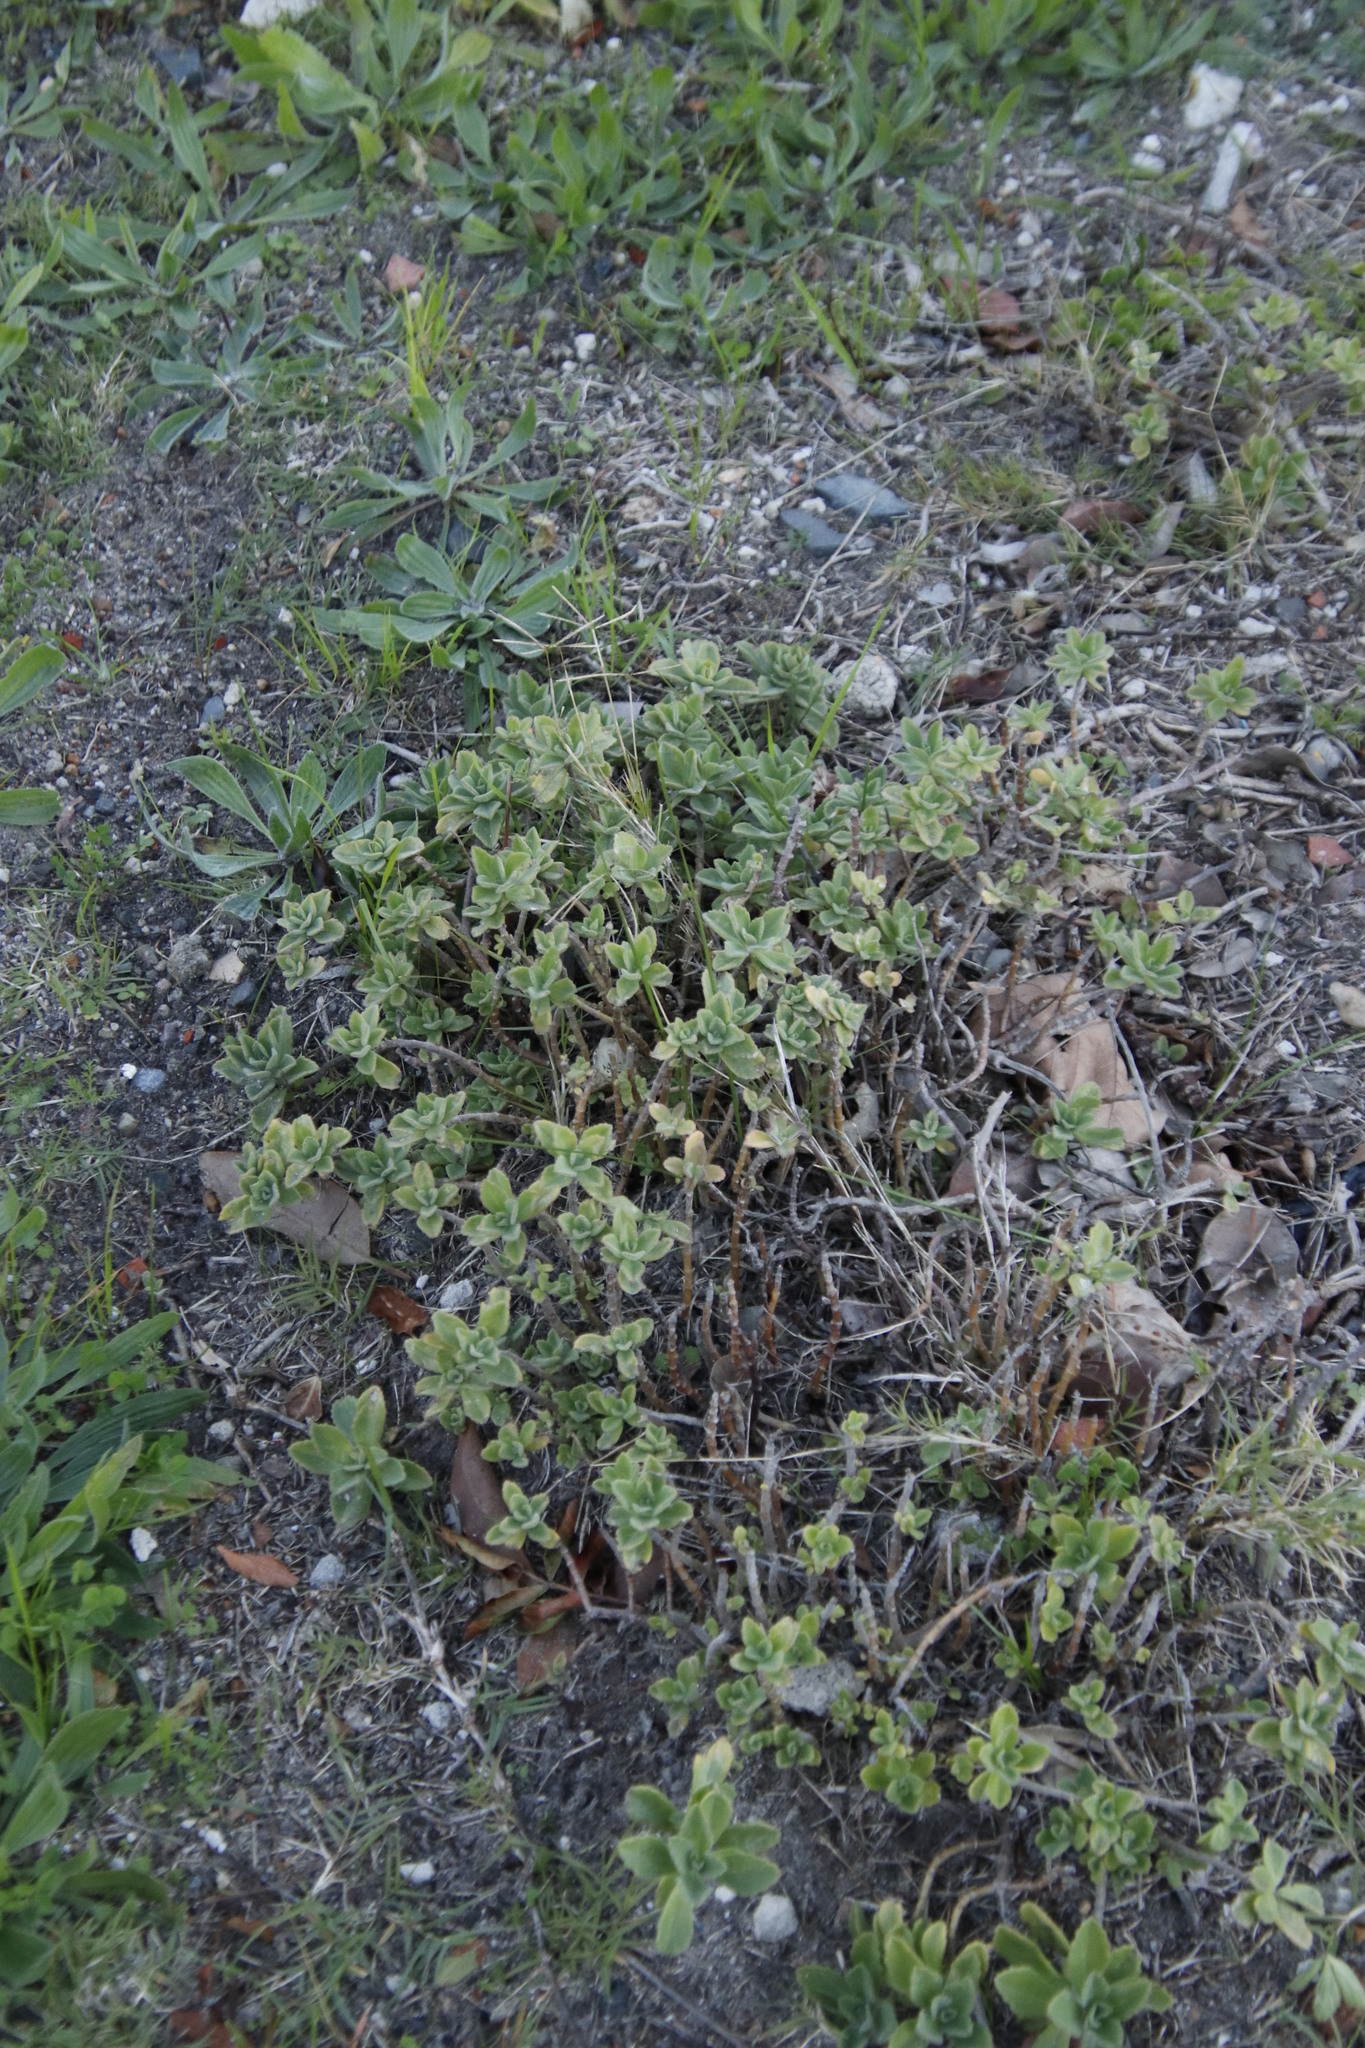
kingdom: Plantae
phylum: Tracheophyta
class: Magnoliopsida
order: Lamiales
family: Lamiaceae
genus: Coleus
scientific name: Coleus neochilus
